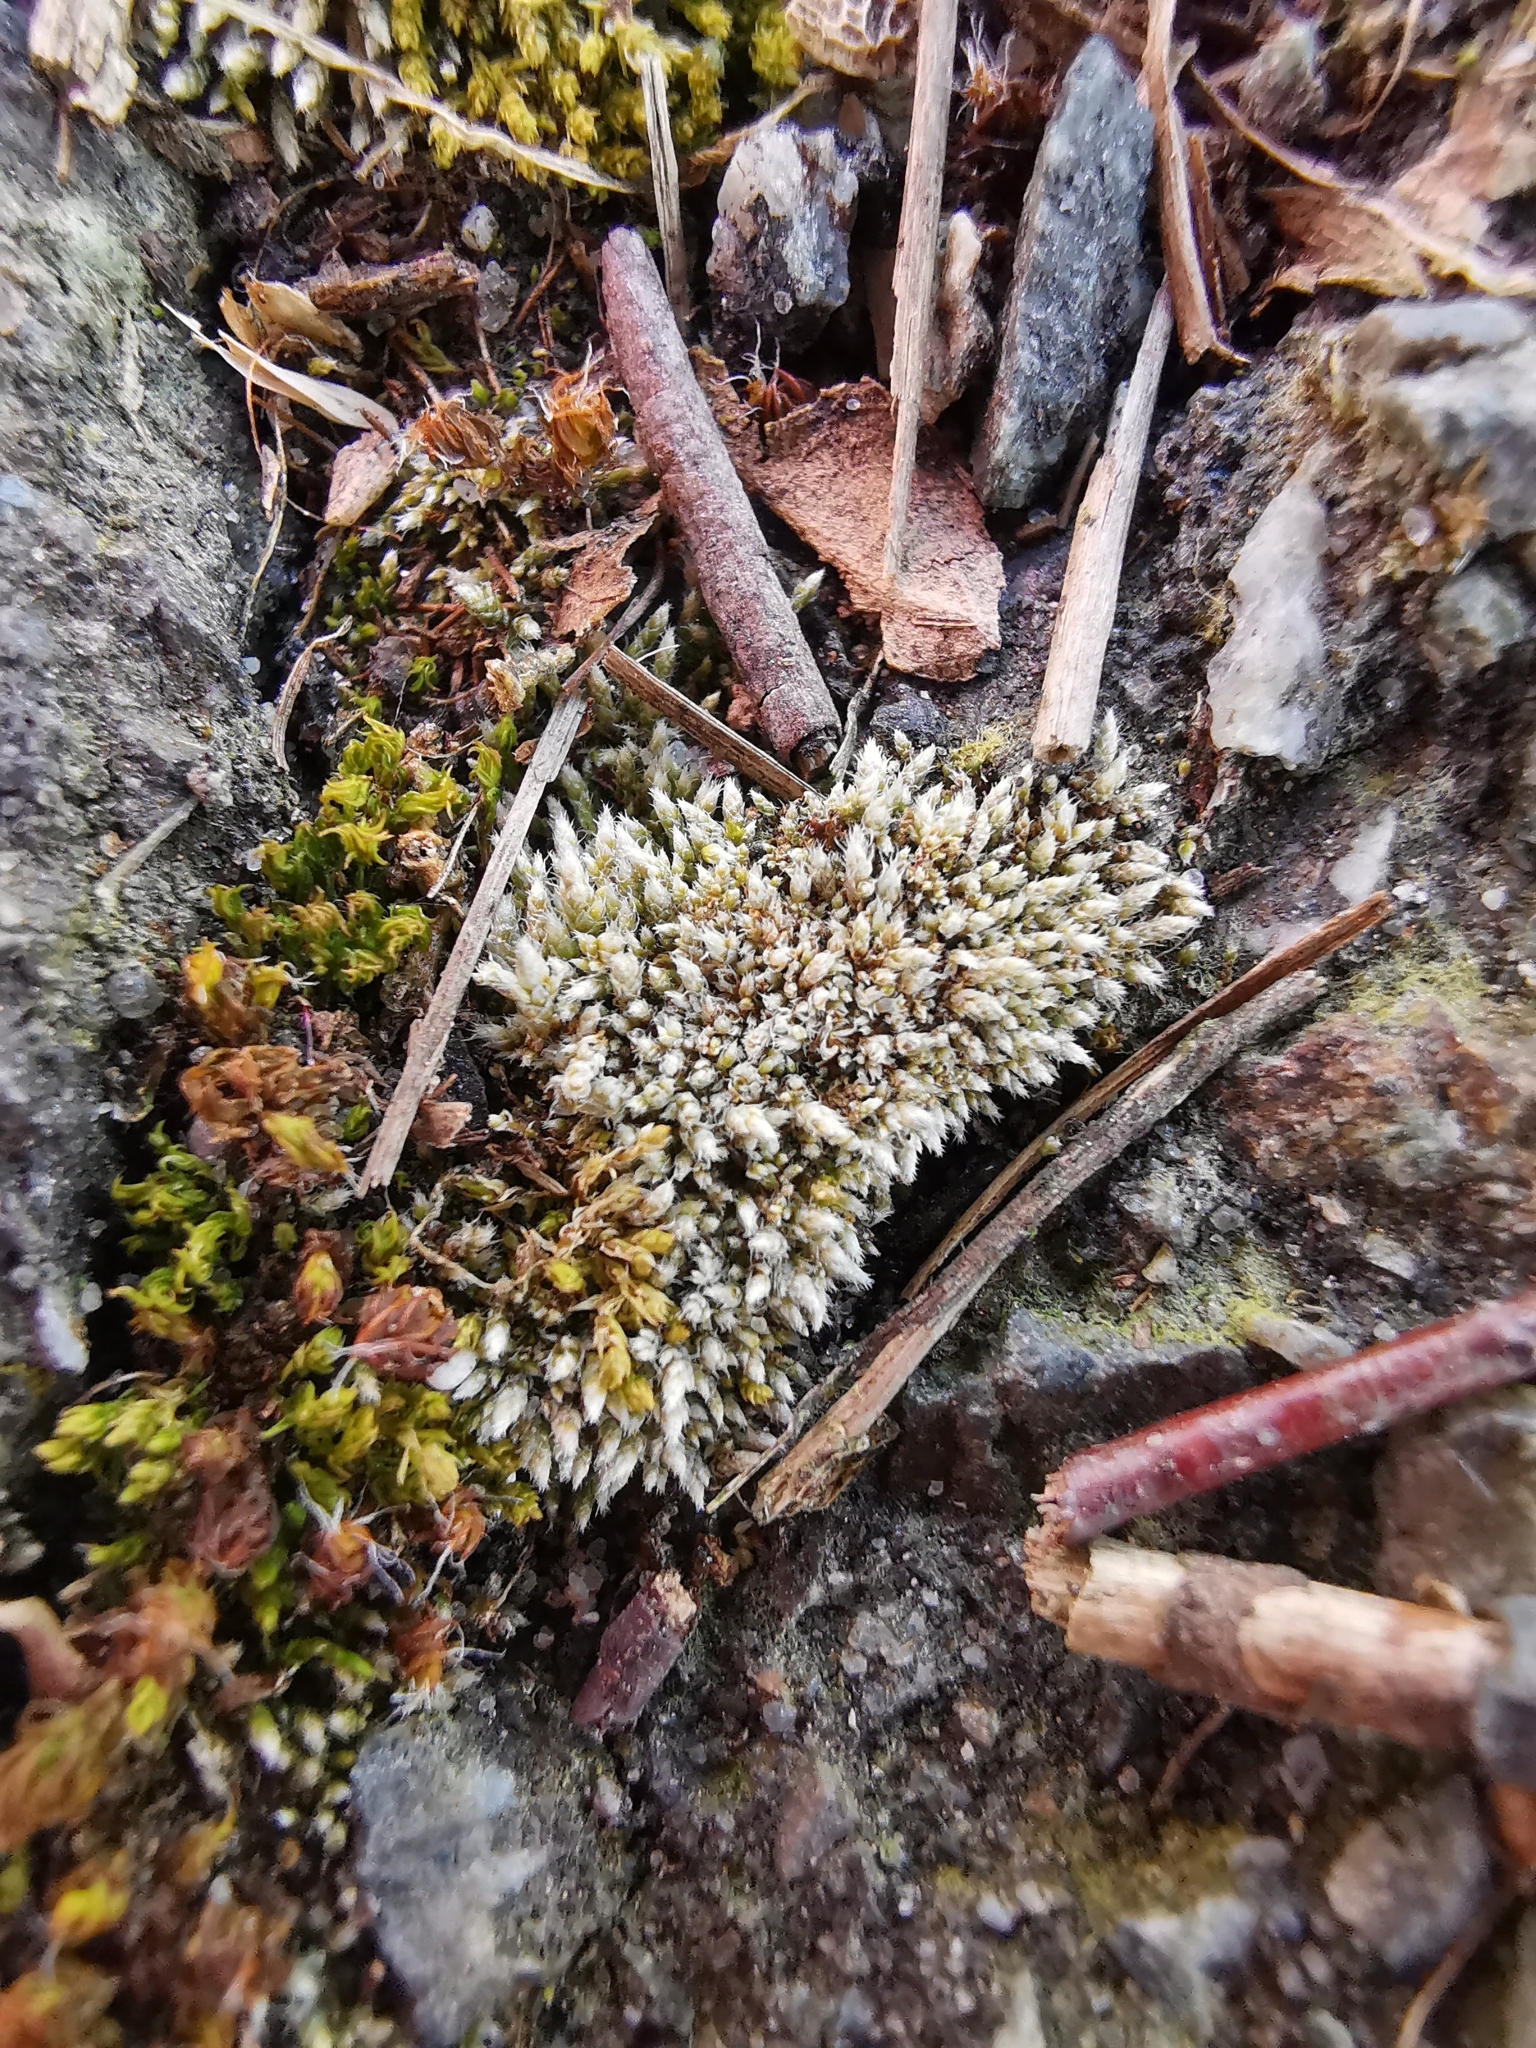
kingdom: Plantae
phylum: Bryophyta
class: Bryopsida
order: Bryales
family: Bryaceae
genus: Bryum
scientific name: Bryum argenteum
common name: Silver-moss
